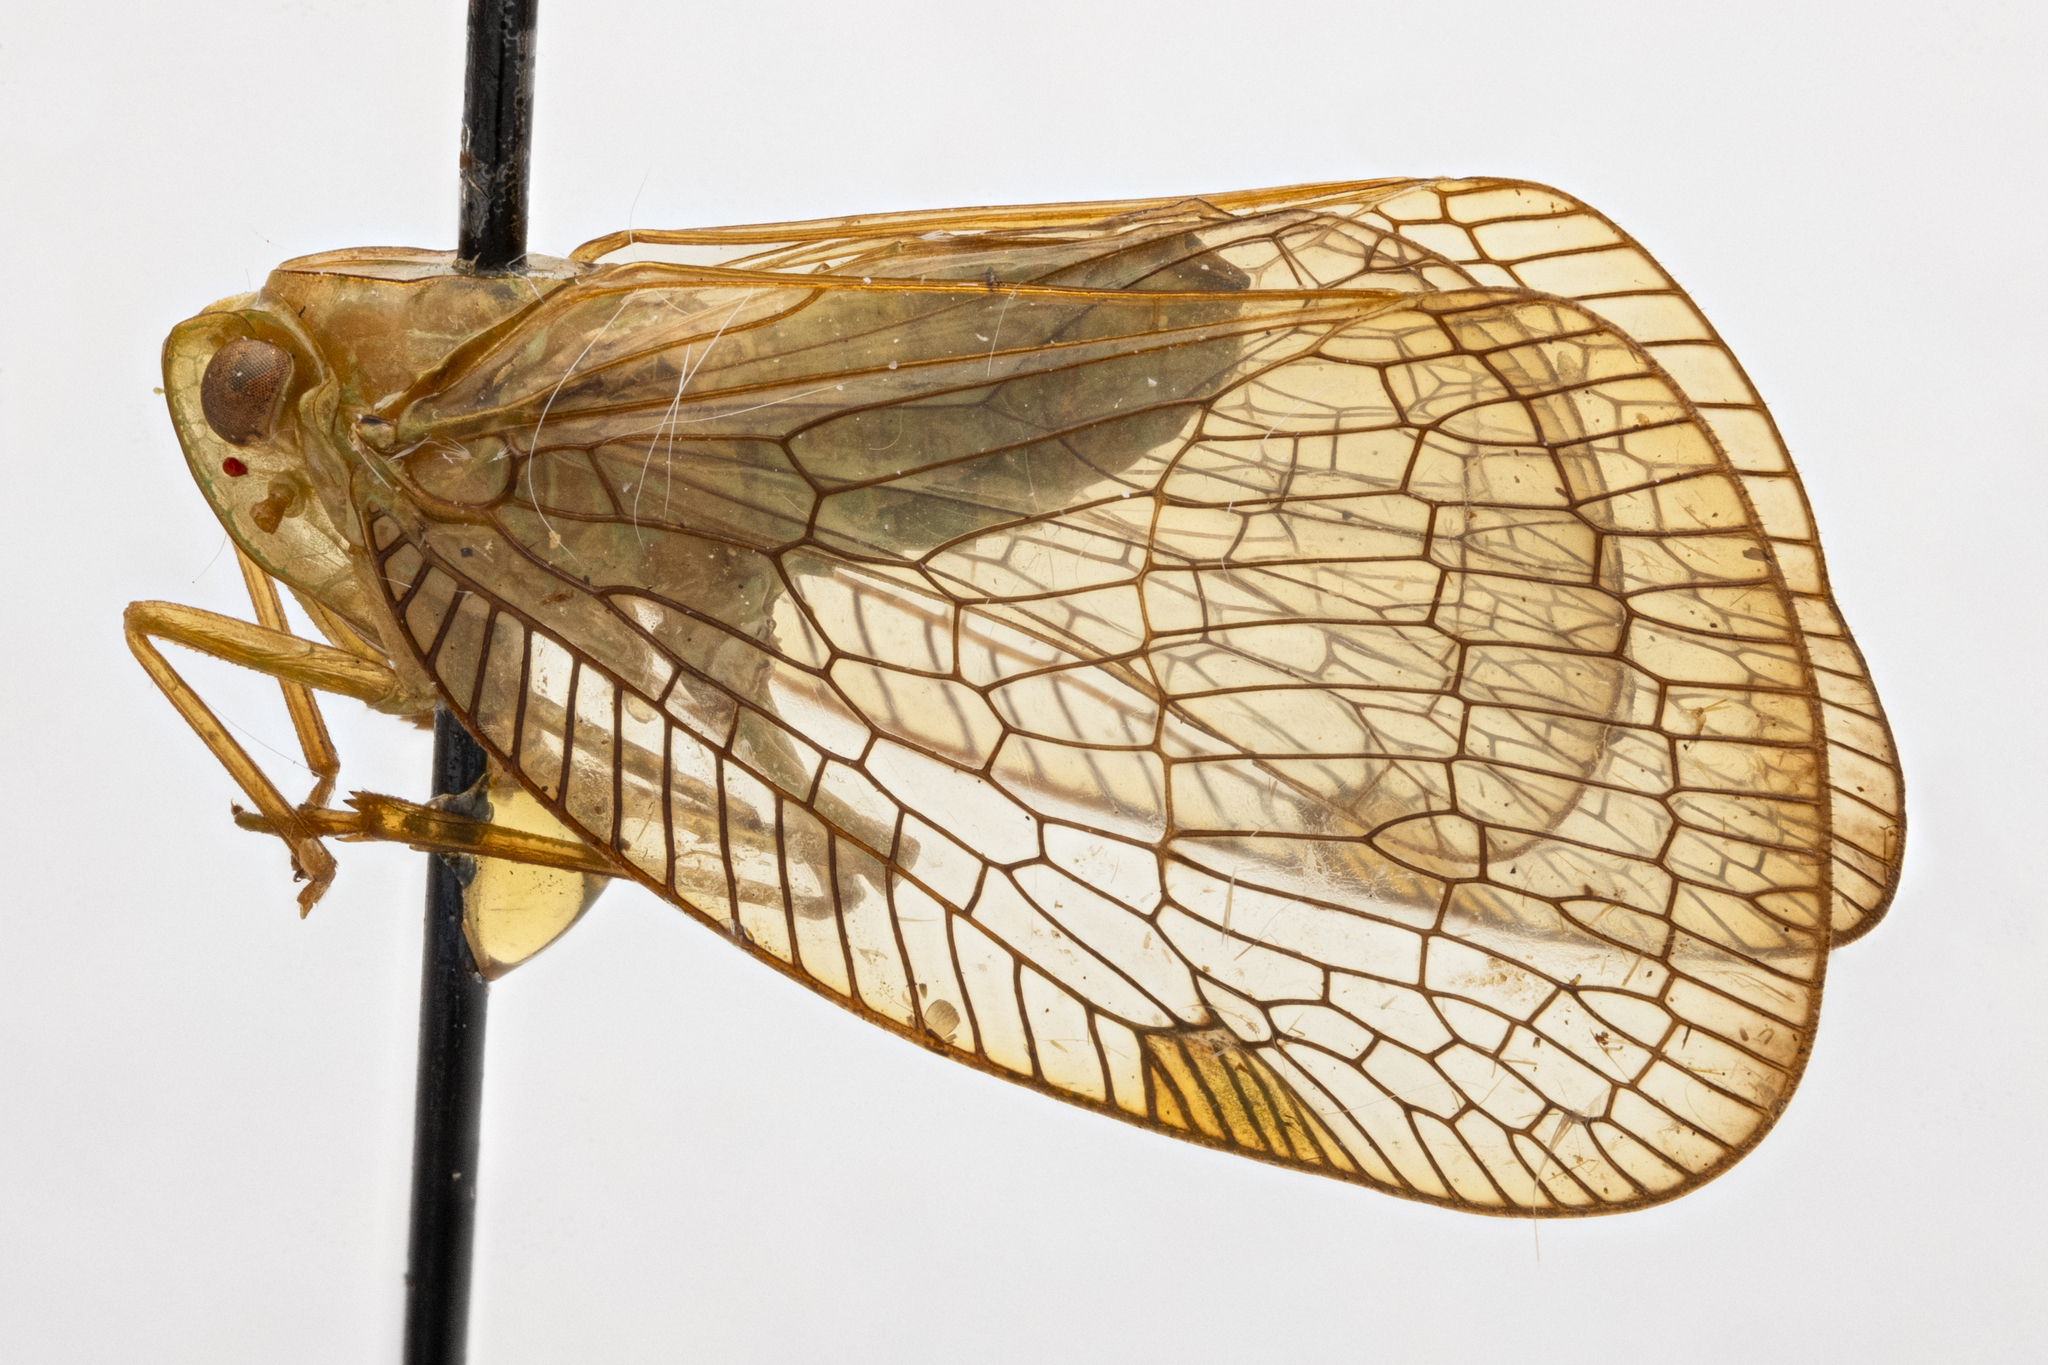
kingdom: Animalia
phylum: Arthropoda
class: Insecta
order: Hemiptera
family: Nogodinidae
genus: Varciopsis
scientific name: Varciopsis vitripennis
